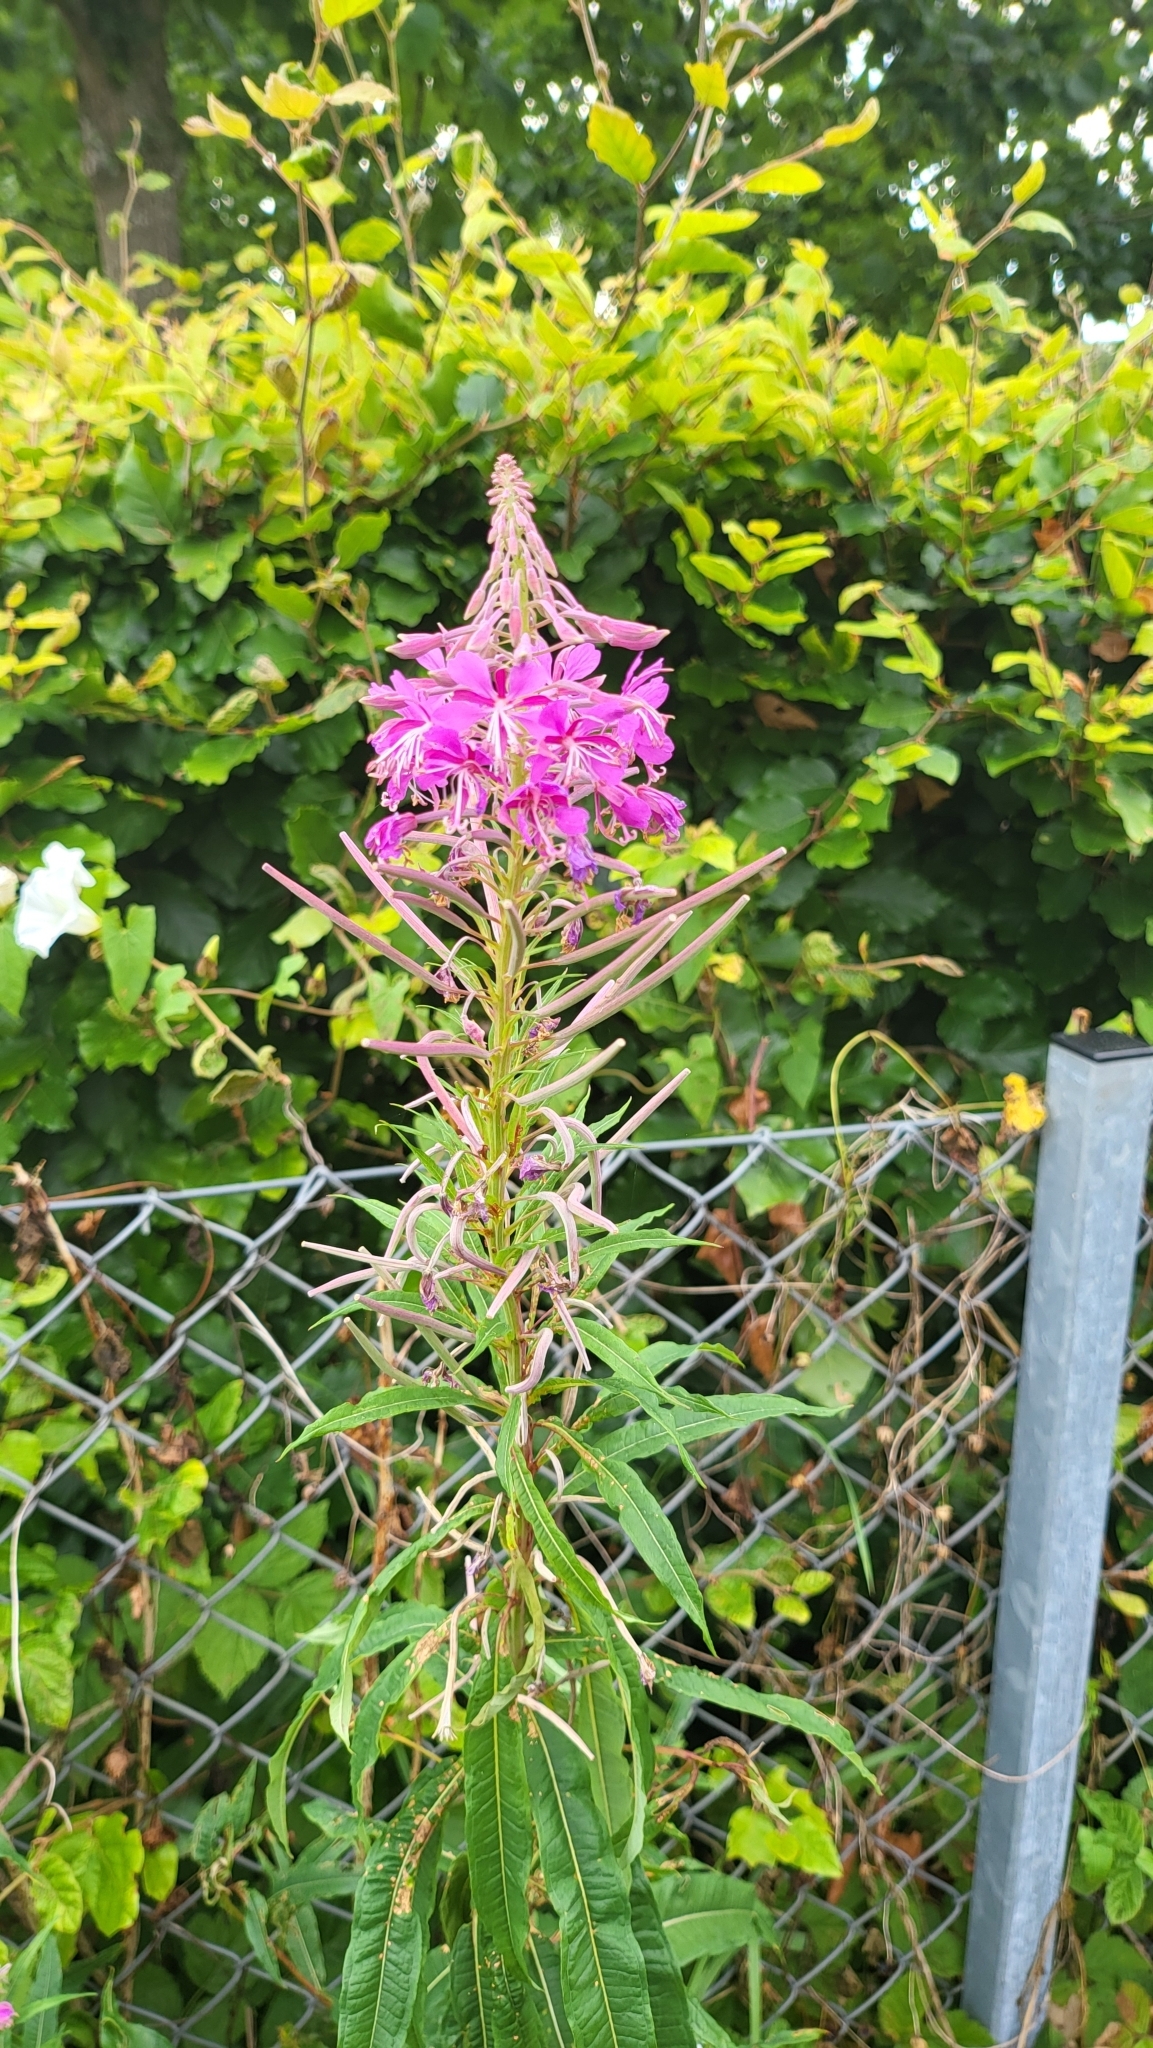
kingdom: Plantae
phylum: Tracheophyta
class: Magnoliopsida
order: Myrtales
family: Onagraceae
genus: Chamaenerion
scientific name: Chamaenerion angustifolium
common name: Fireweed
